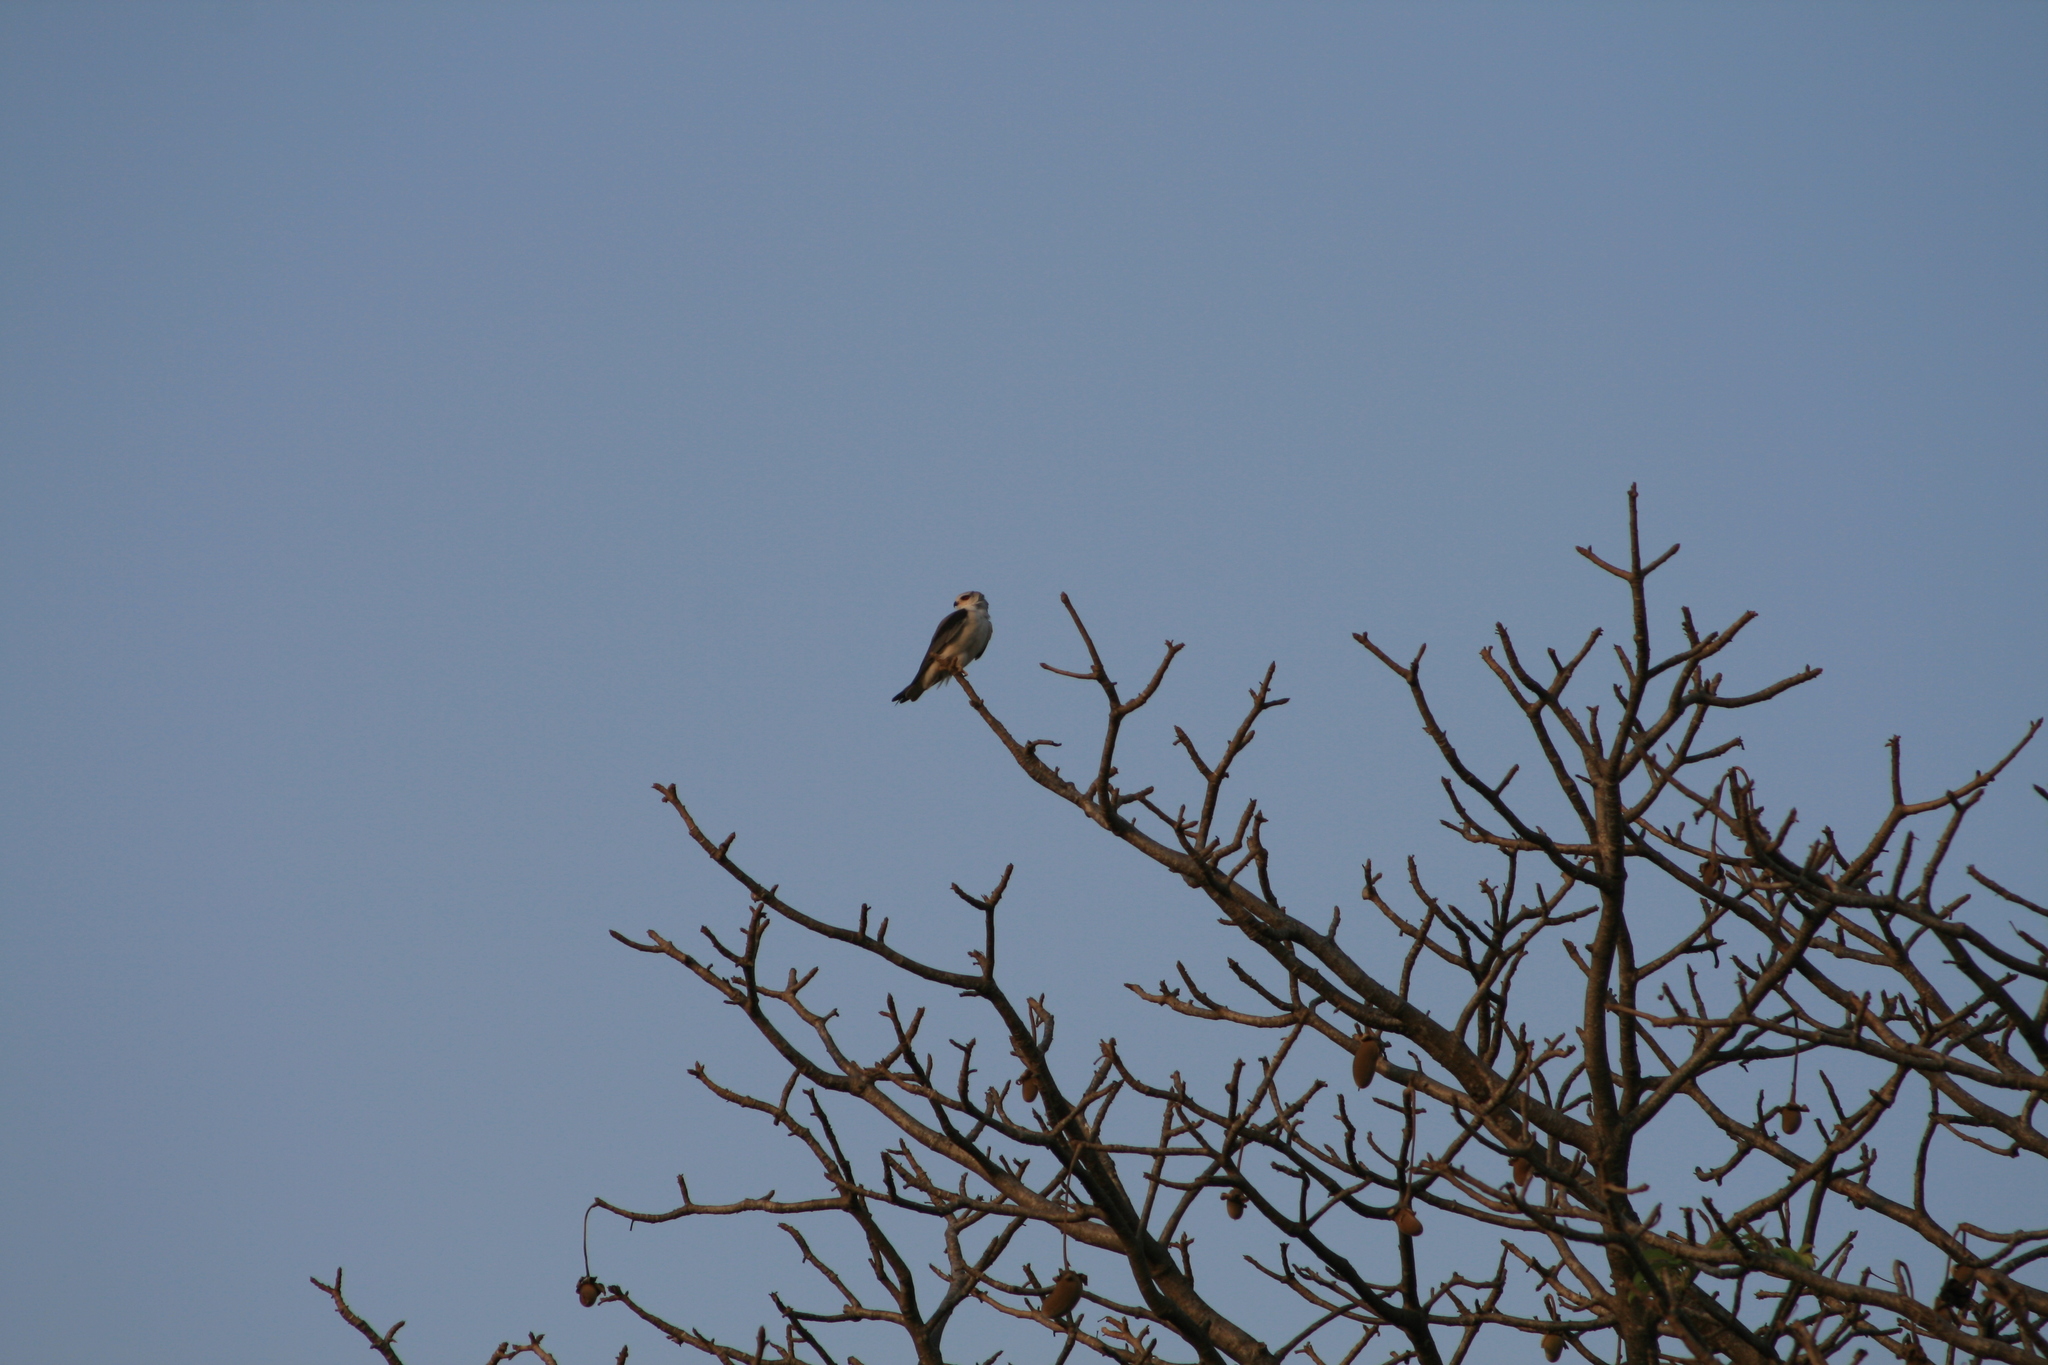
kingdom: Animalia
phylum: Chordata
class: Aves
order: Accipitriformes
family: Accipitridae
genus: Elanus
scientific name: Elanus caeruleus
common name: Black-winged kite
